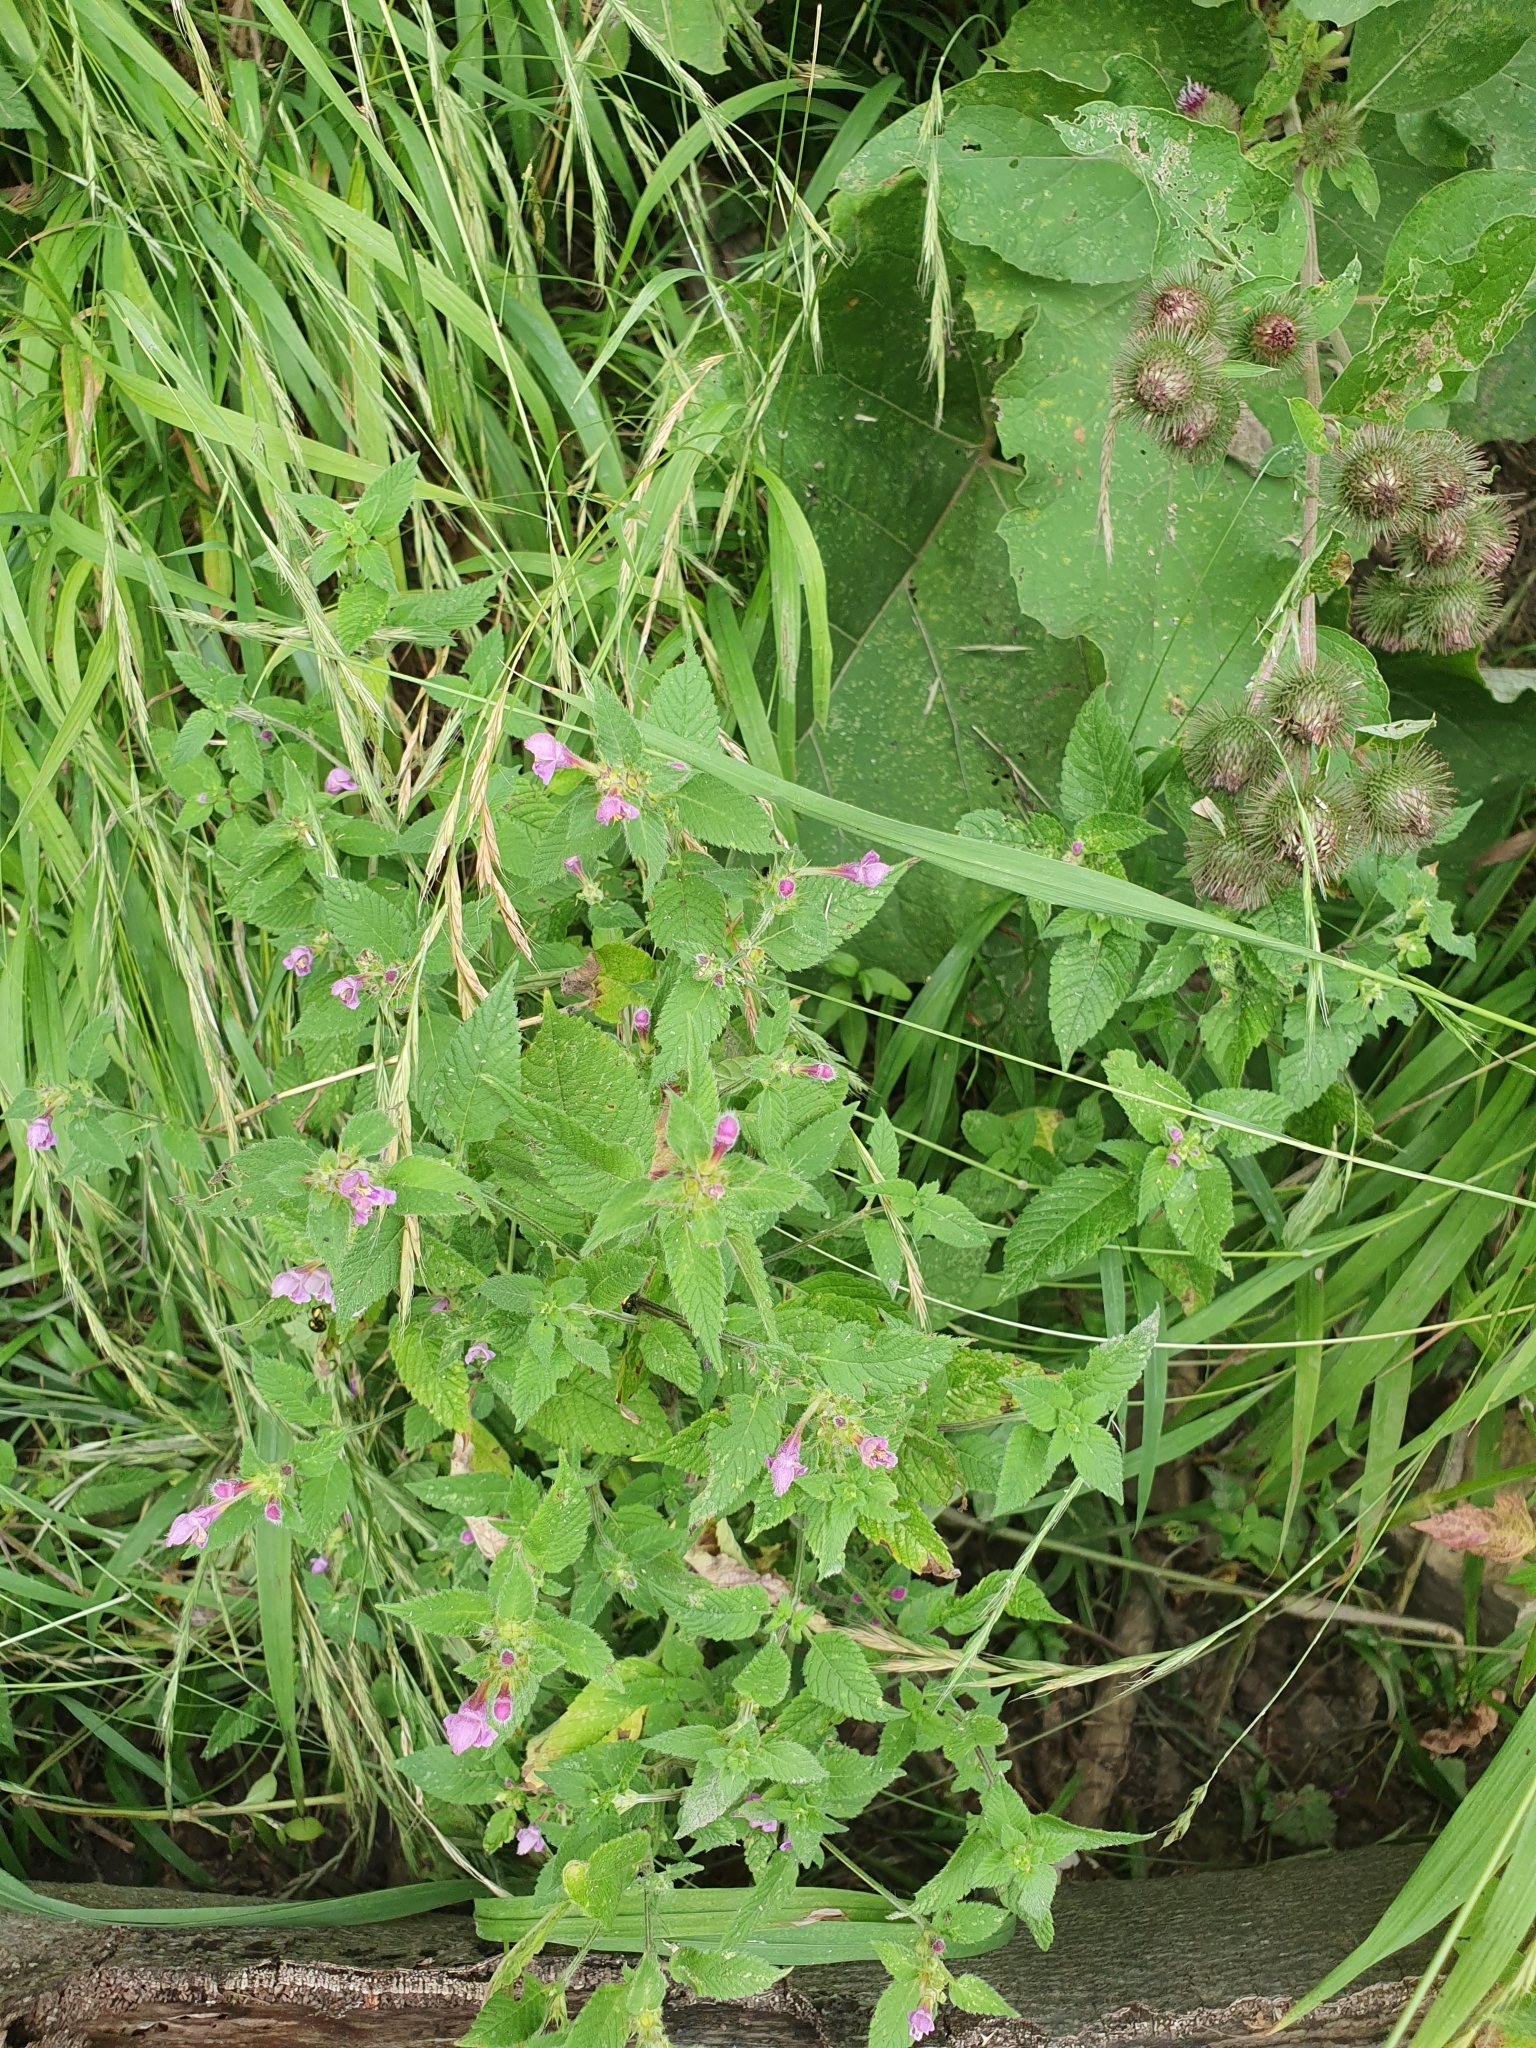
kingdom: Plantae
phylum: Tracheophyta
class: Magnoliopsida
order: Lamiales
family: Lamiaceae
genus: Galeopsis
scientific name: Galeopsis pubescens
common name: Downy hemp-nettle
